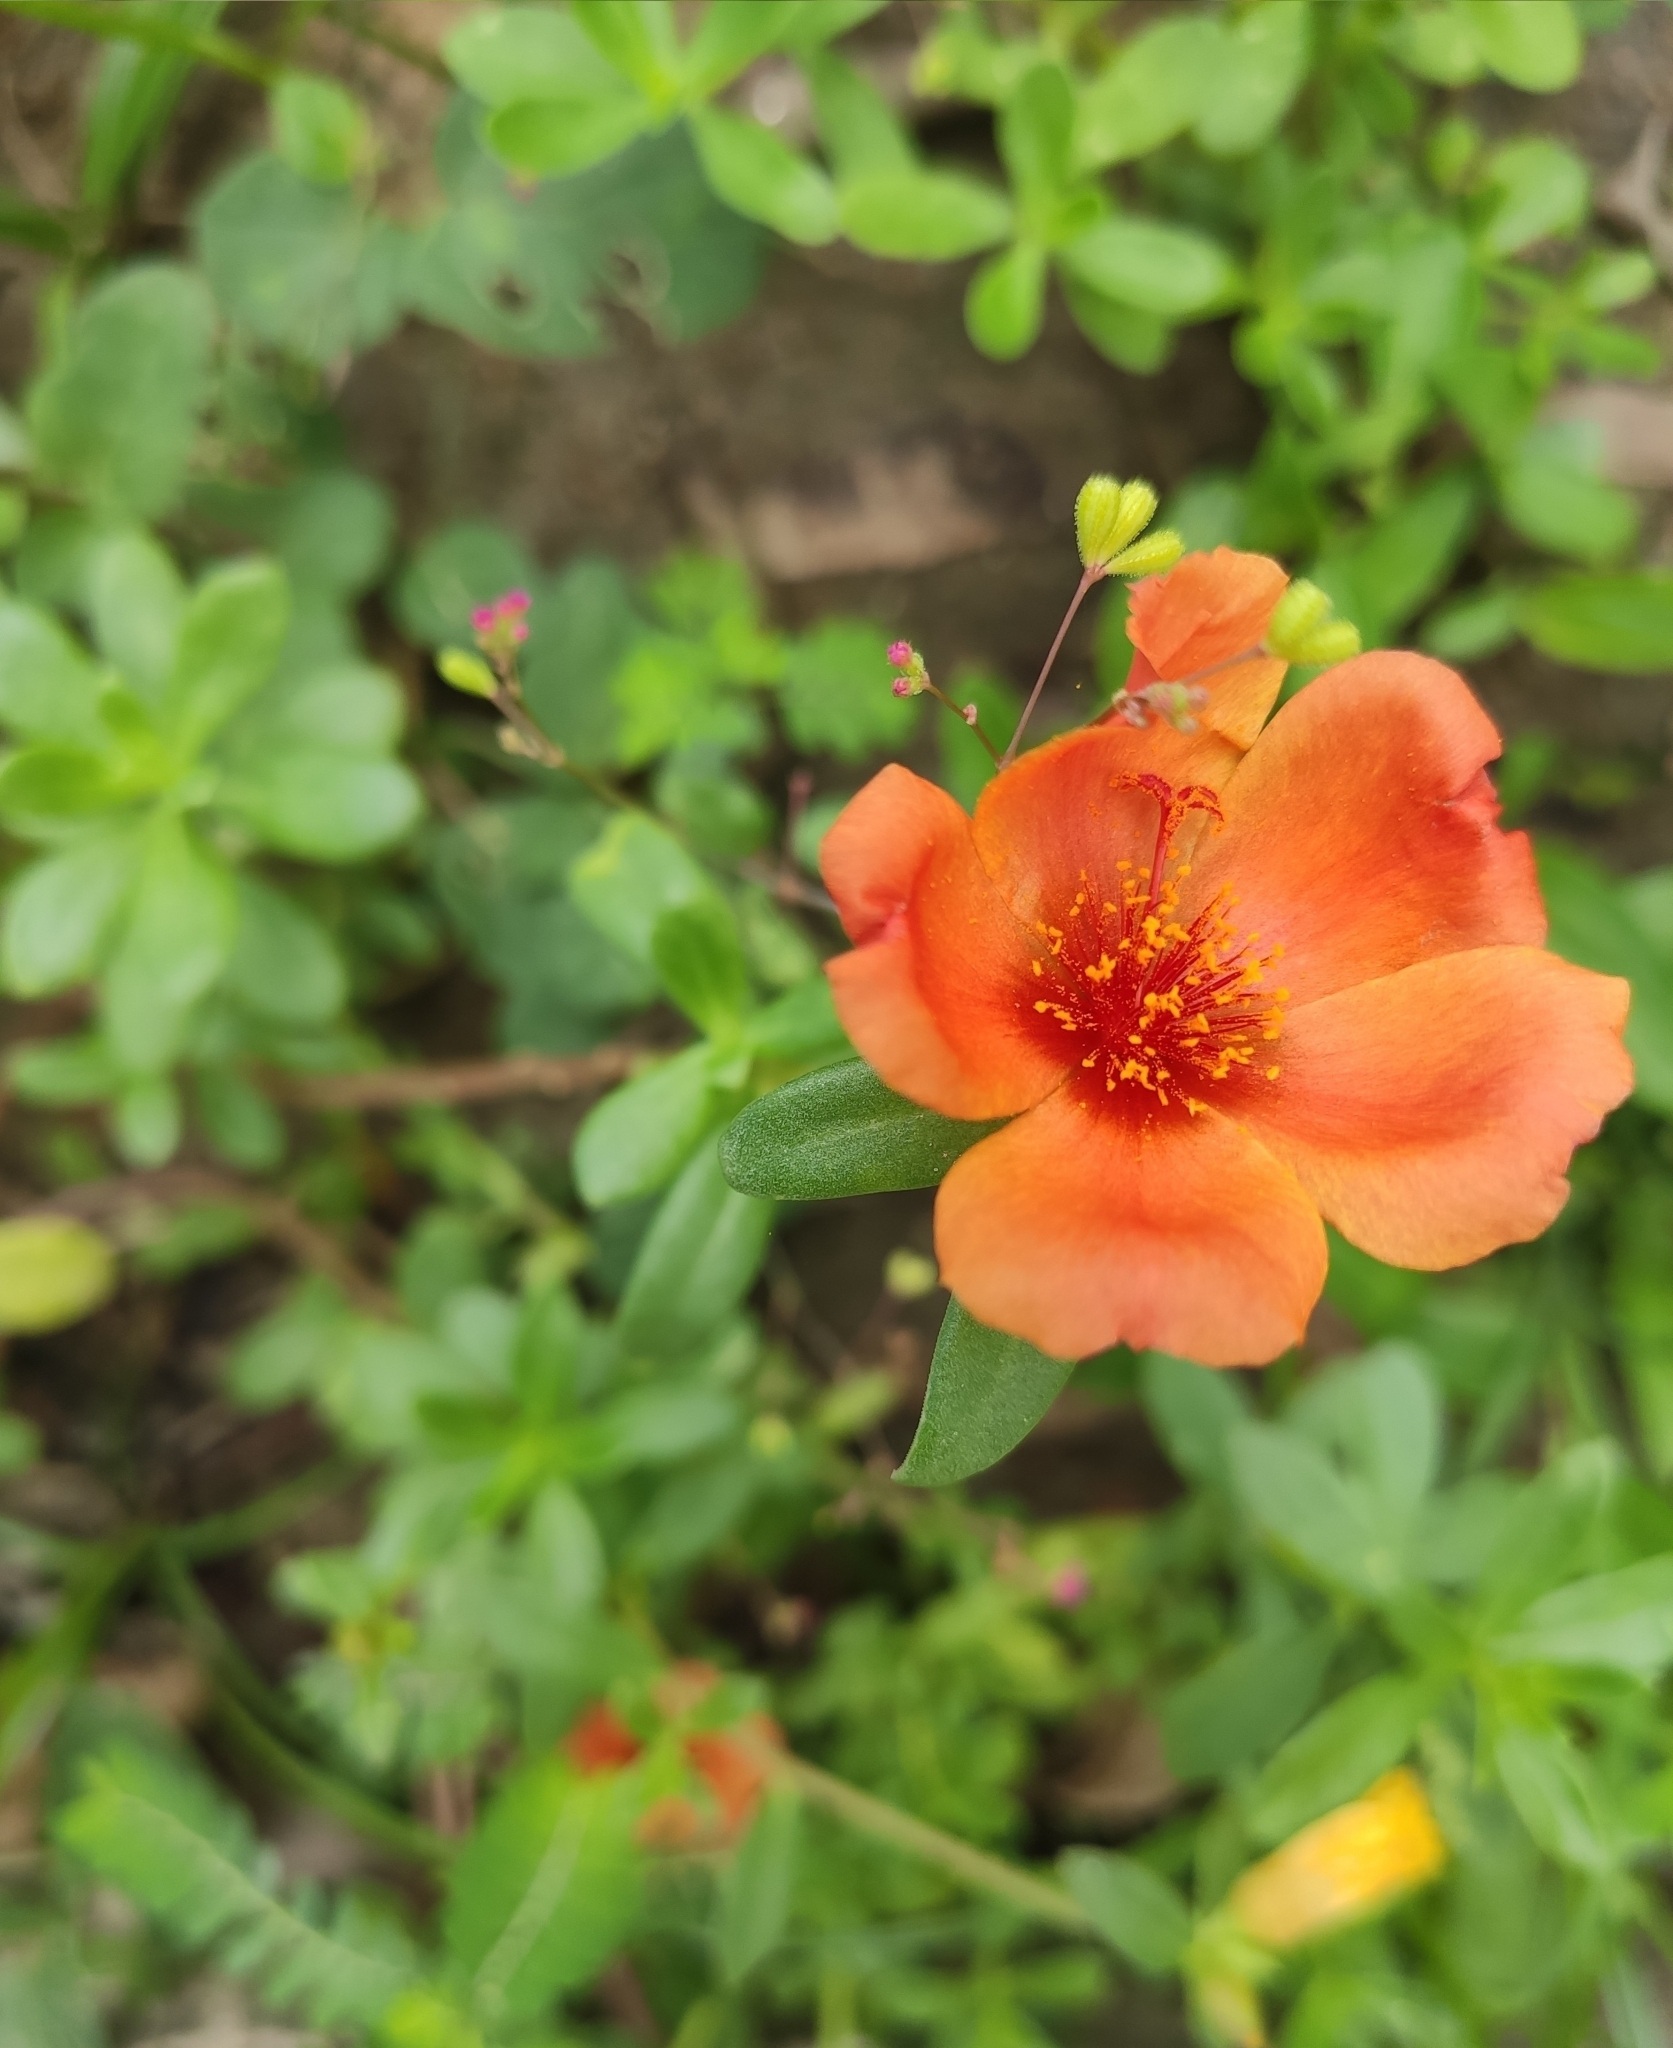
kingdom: Plantae
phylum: Tracheophyta
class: Magnoliopsida
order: Caryophyllales
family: Portulacaceae
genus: Portulaca
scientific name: Portulaca umbraticola
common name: Wingpod purslane
